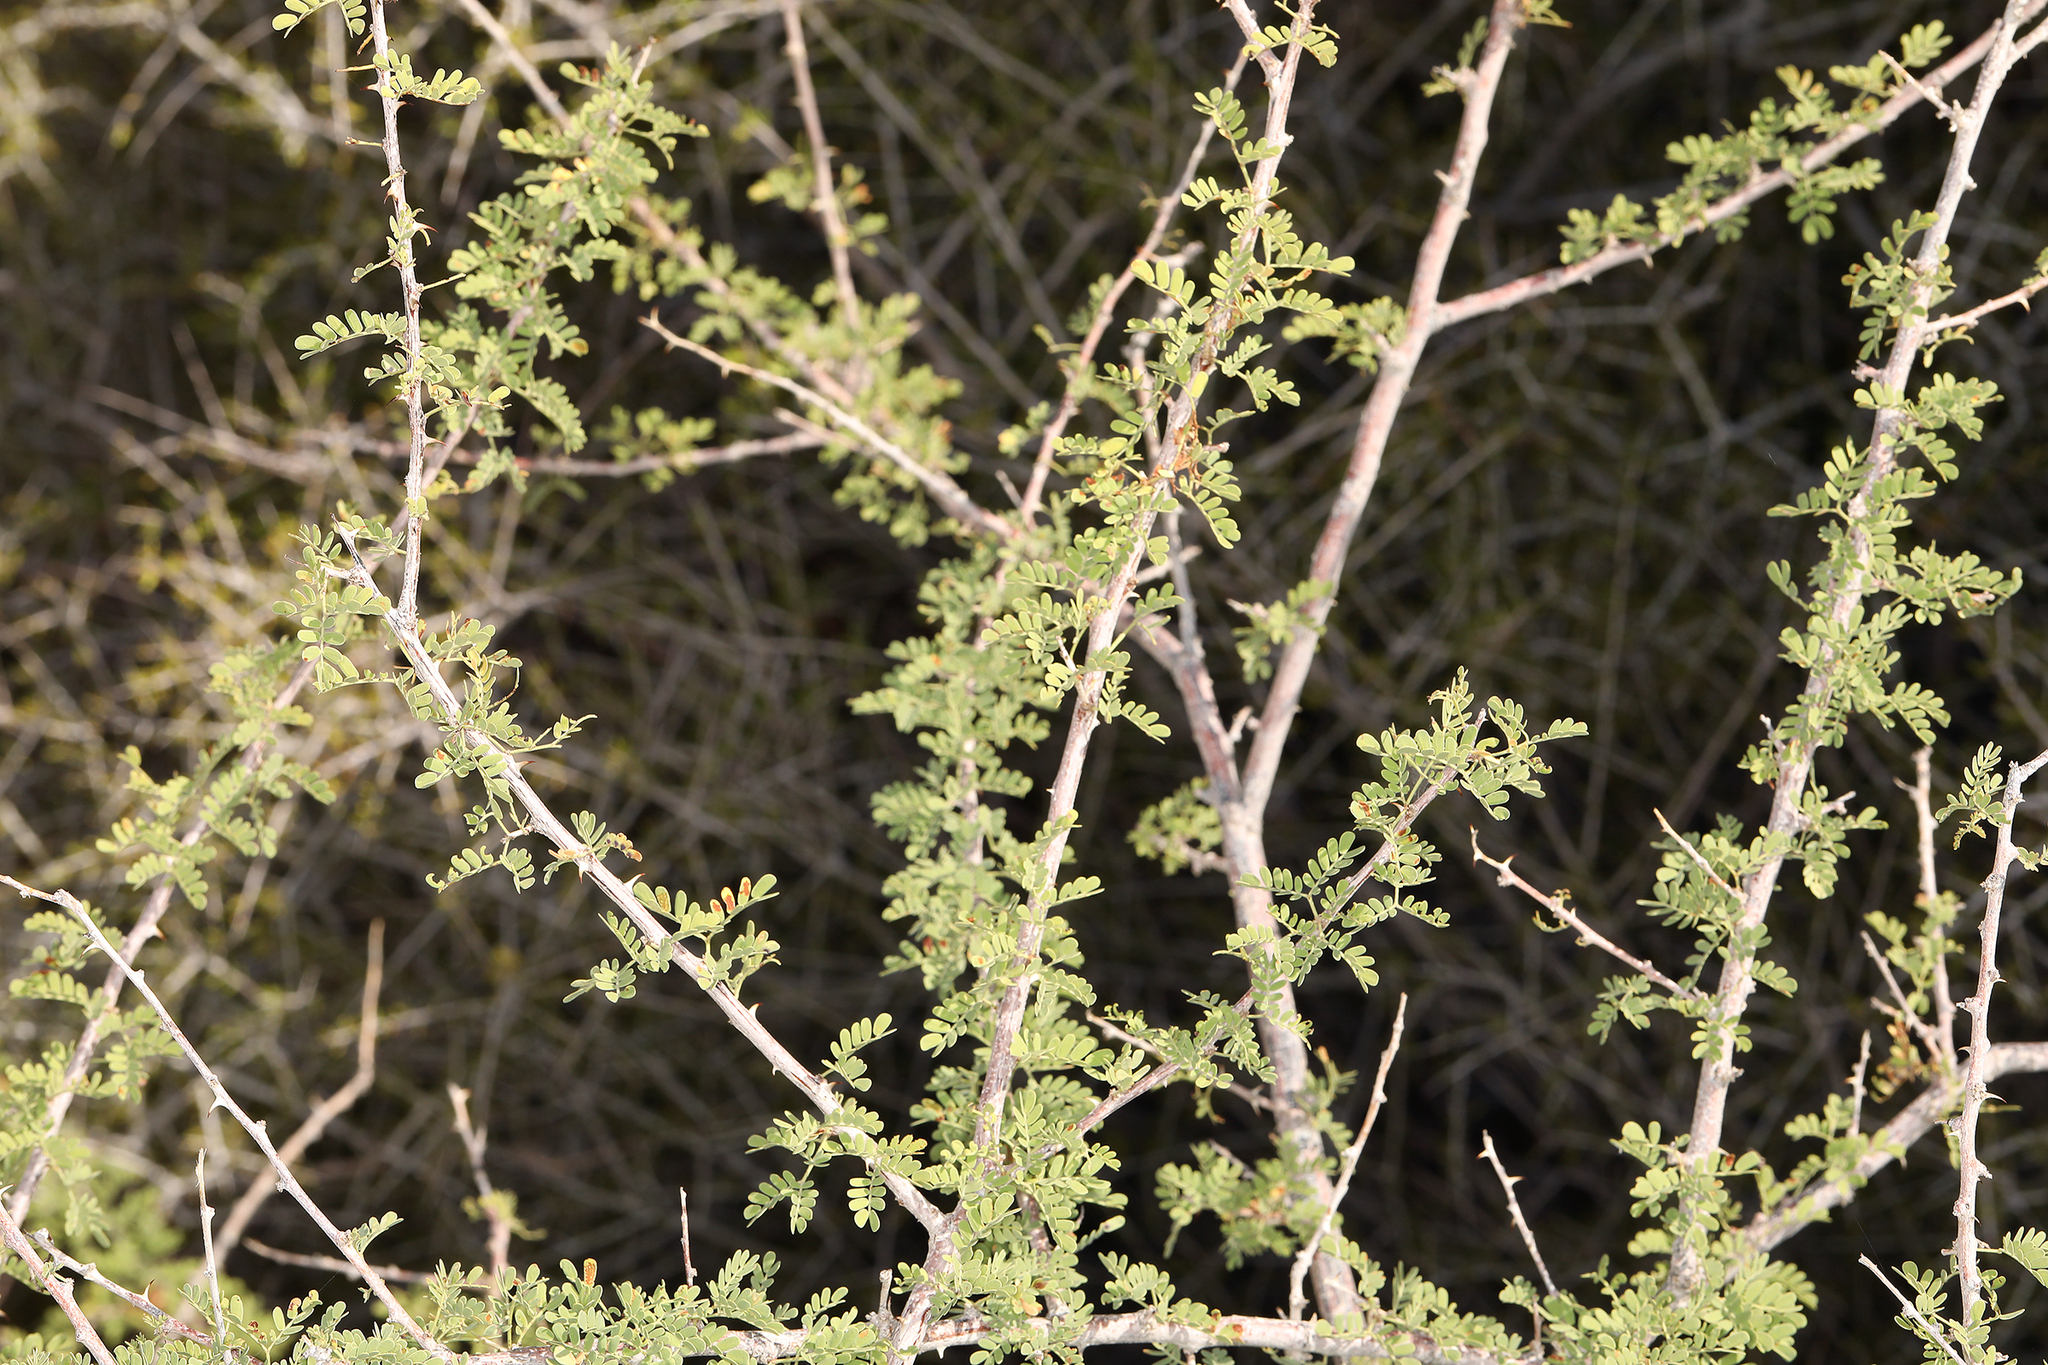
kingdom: Plantae
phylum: Tracheophyta
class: Magnoliopsida
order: Fabales
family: Fabaceae
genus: Senegalia
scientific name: Senegalia greggii
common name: Texas-mimosa
